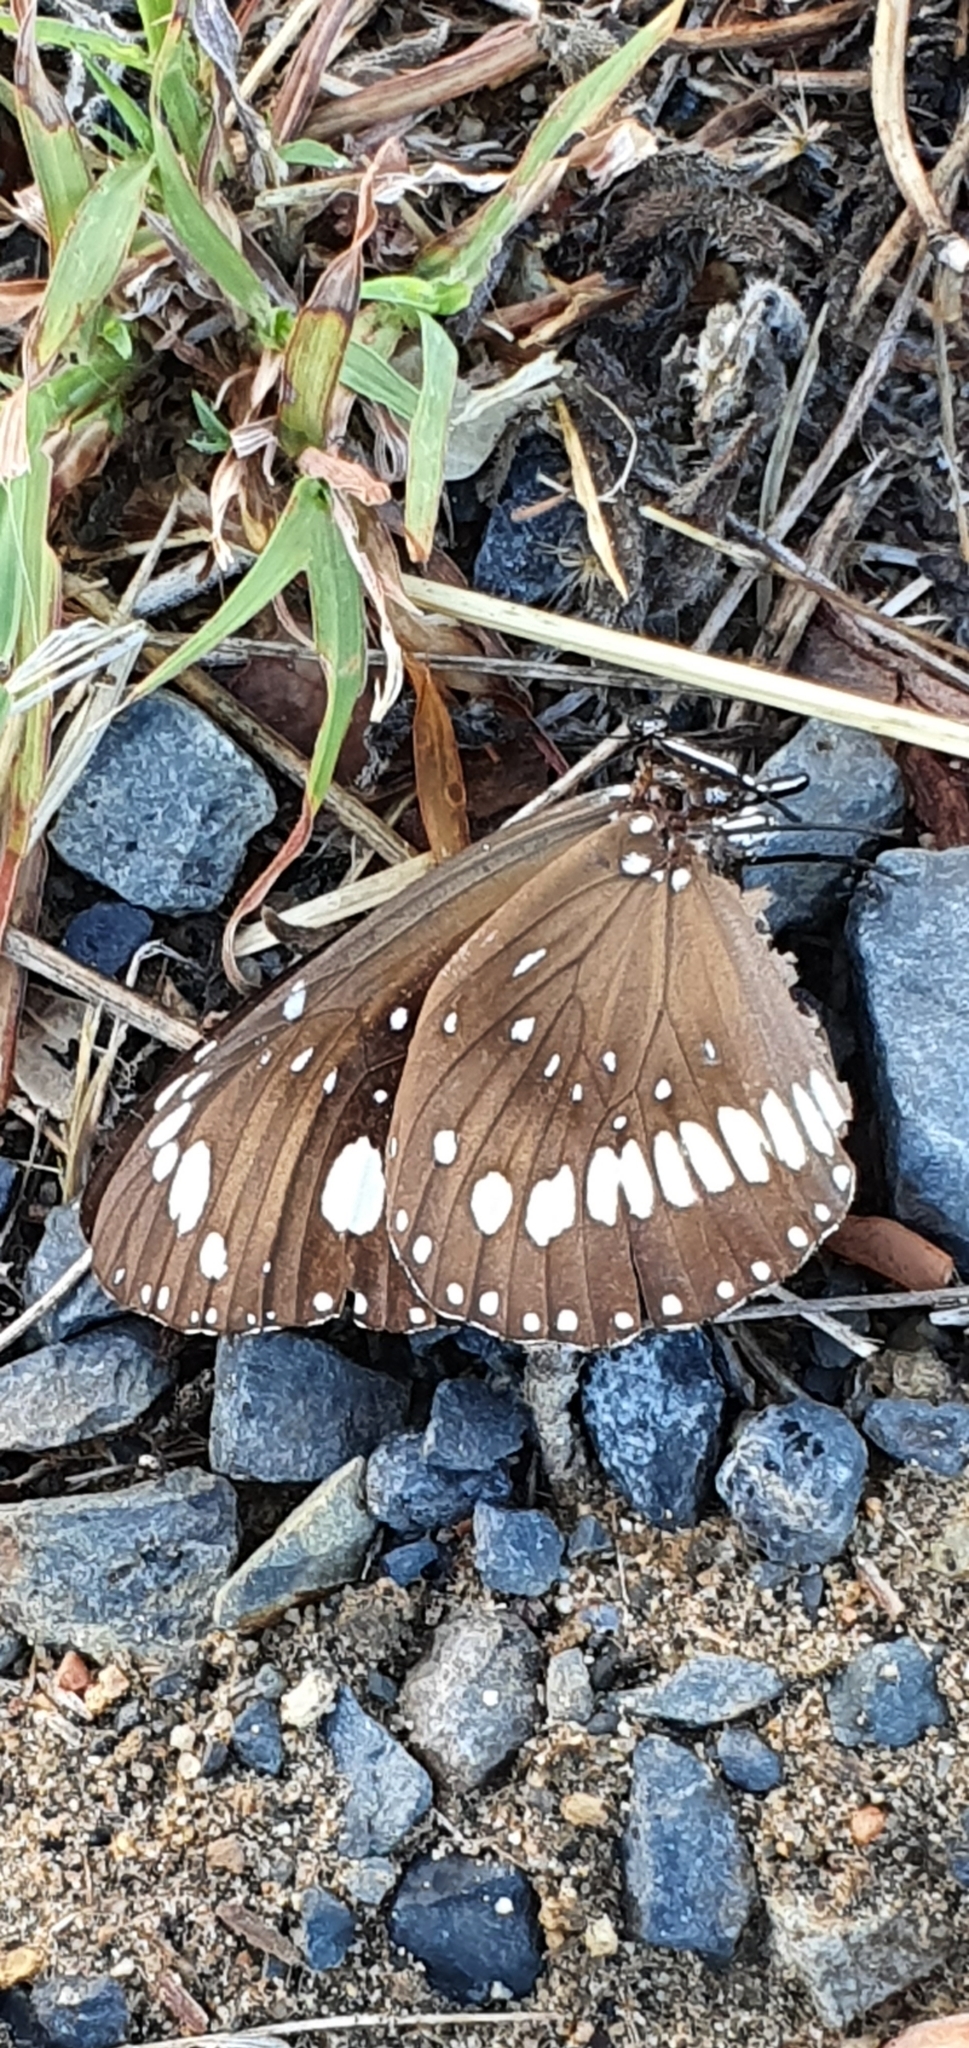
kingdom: Animalia
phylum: Arthropoda
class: Insecta
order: Lepidoptera
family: Nymphalidae
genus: Euploea
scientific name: Euploea core
